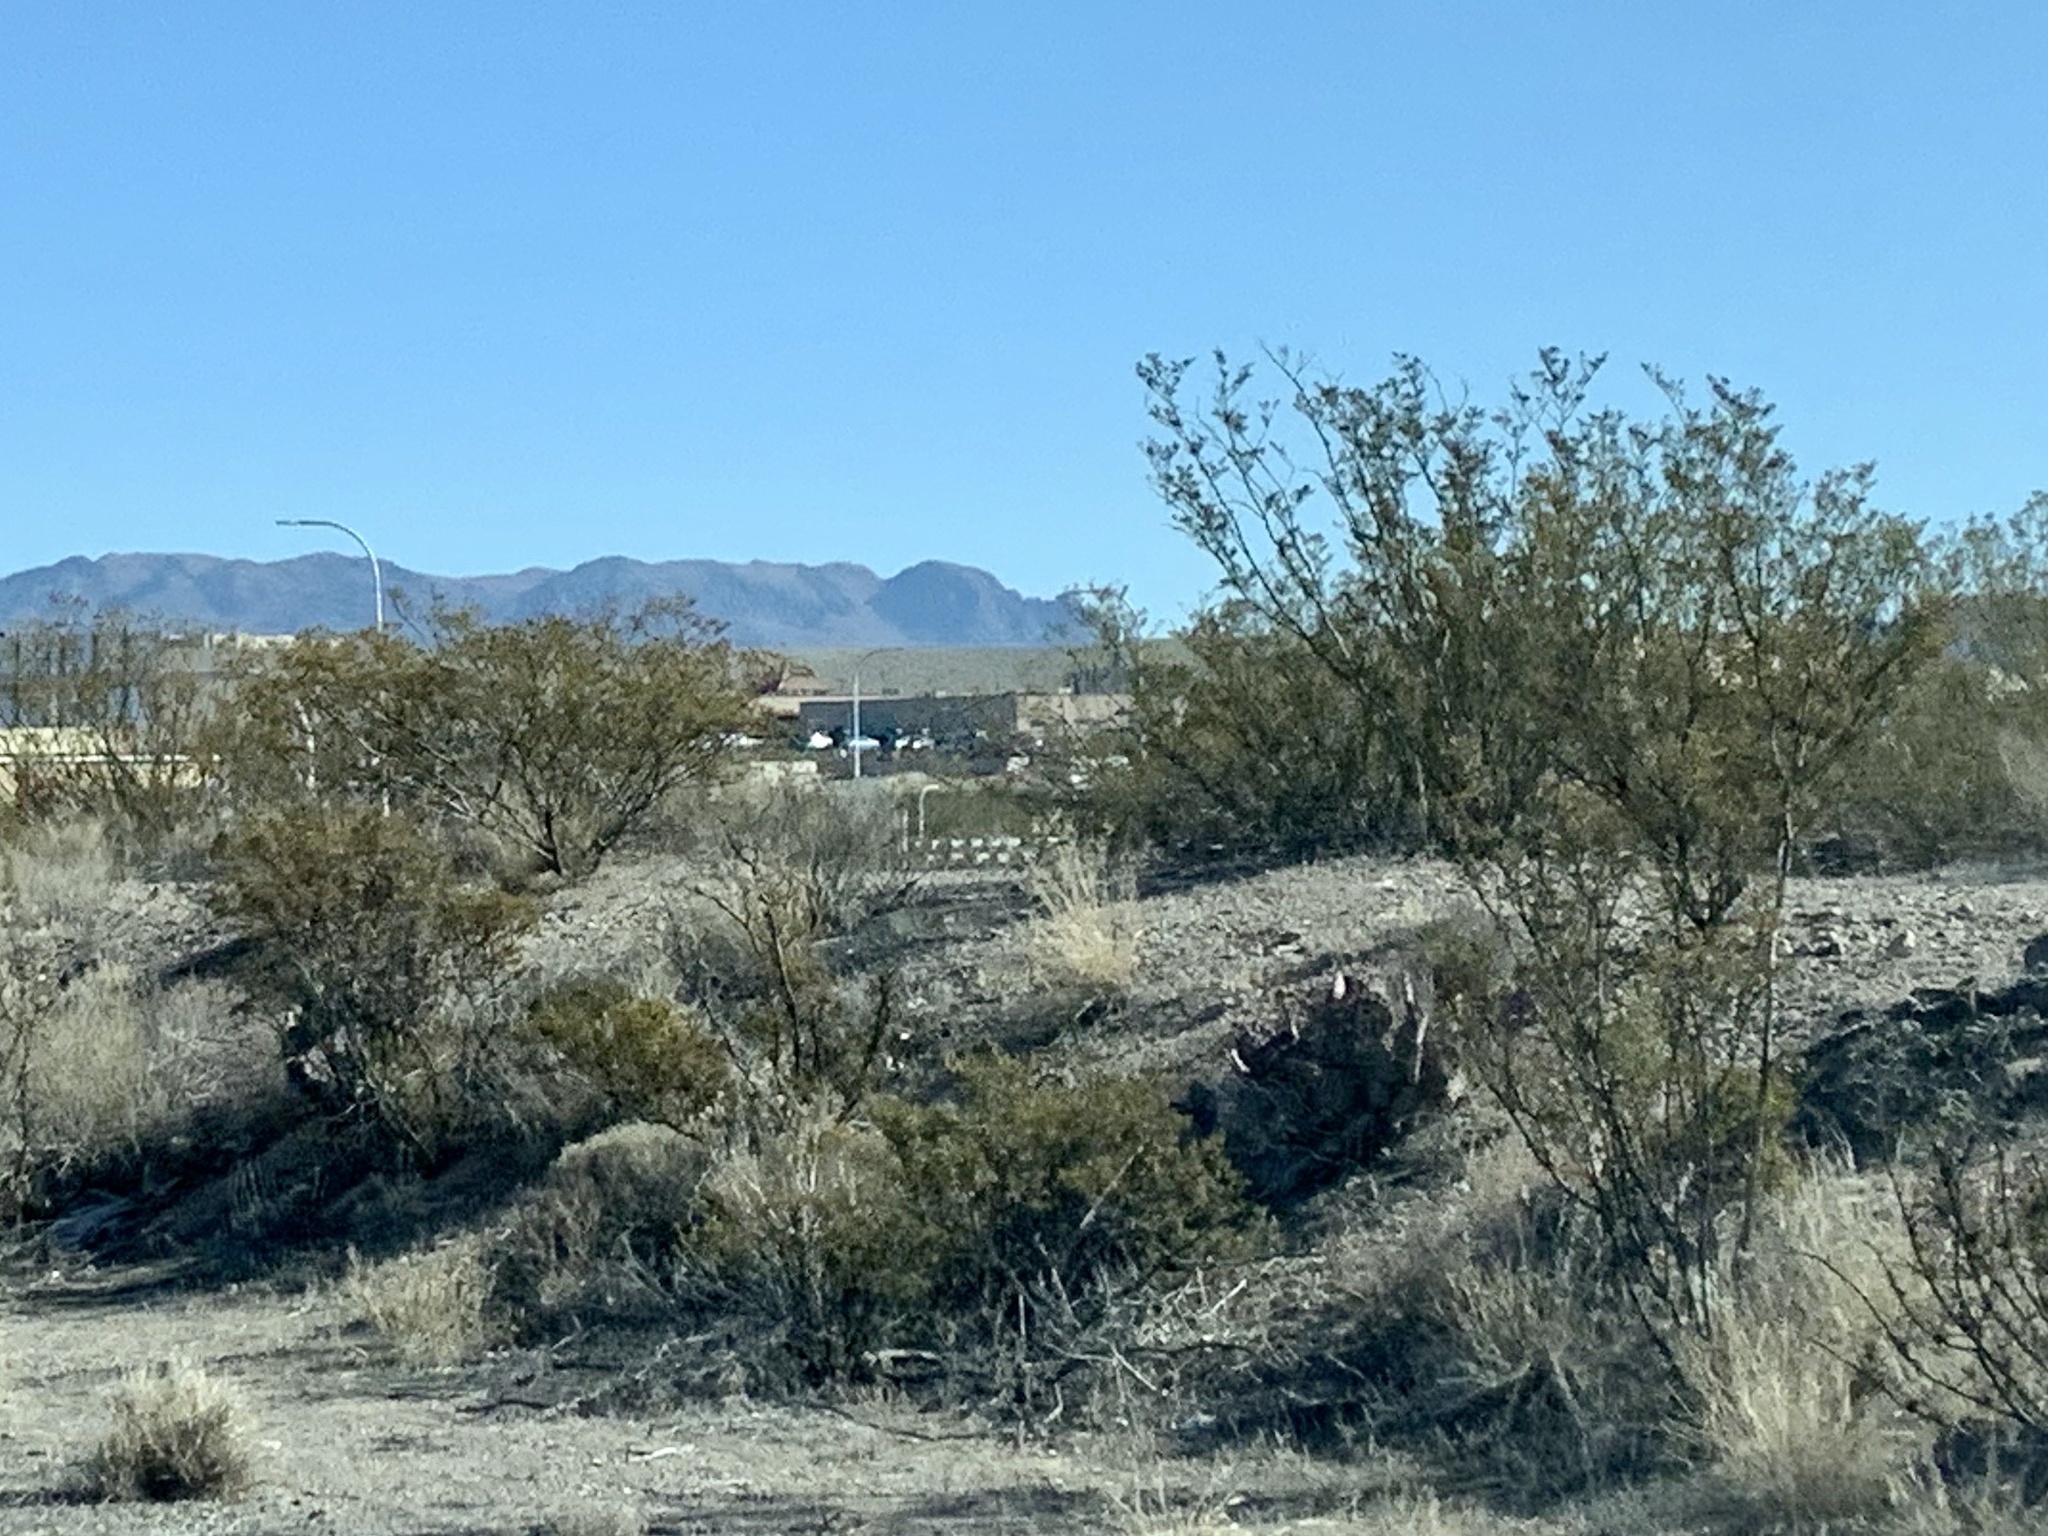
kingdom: Plantae
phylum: Tracheophyta
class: Magnoliopsida
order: Zygophyllales
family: Zygophyllaceae
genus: Larrea
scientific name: Larrea tridentata
